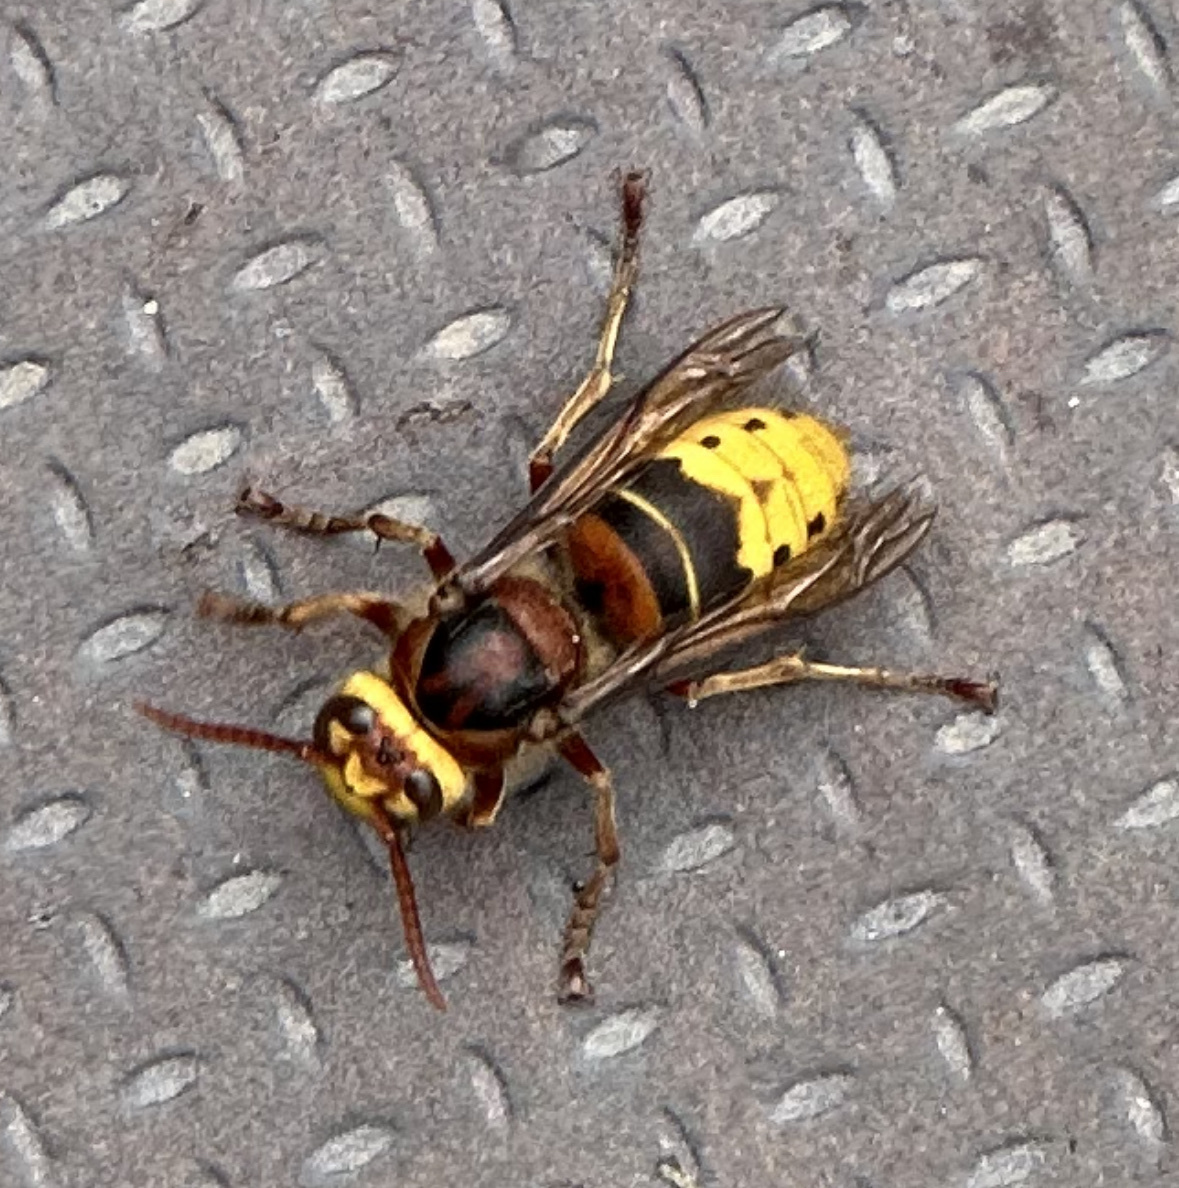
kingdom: Animalia
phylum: Arthropoda
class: Insecta
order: Hymenoptera
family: Vespidae
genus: Vespa
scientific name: Vespa crabro
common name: Hornet
